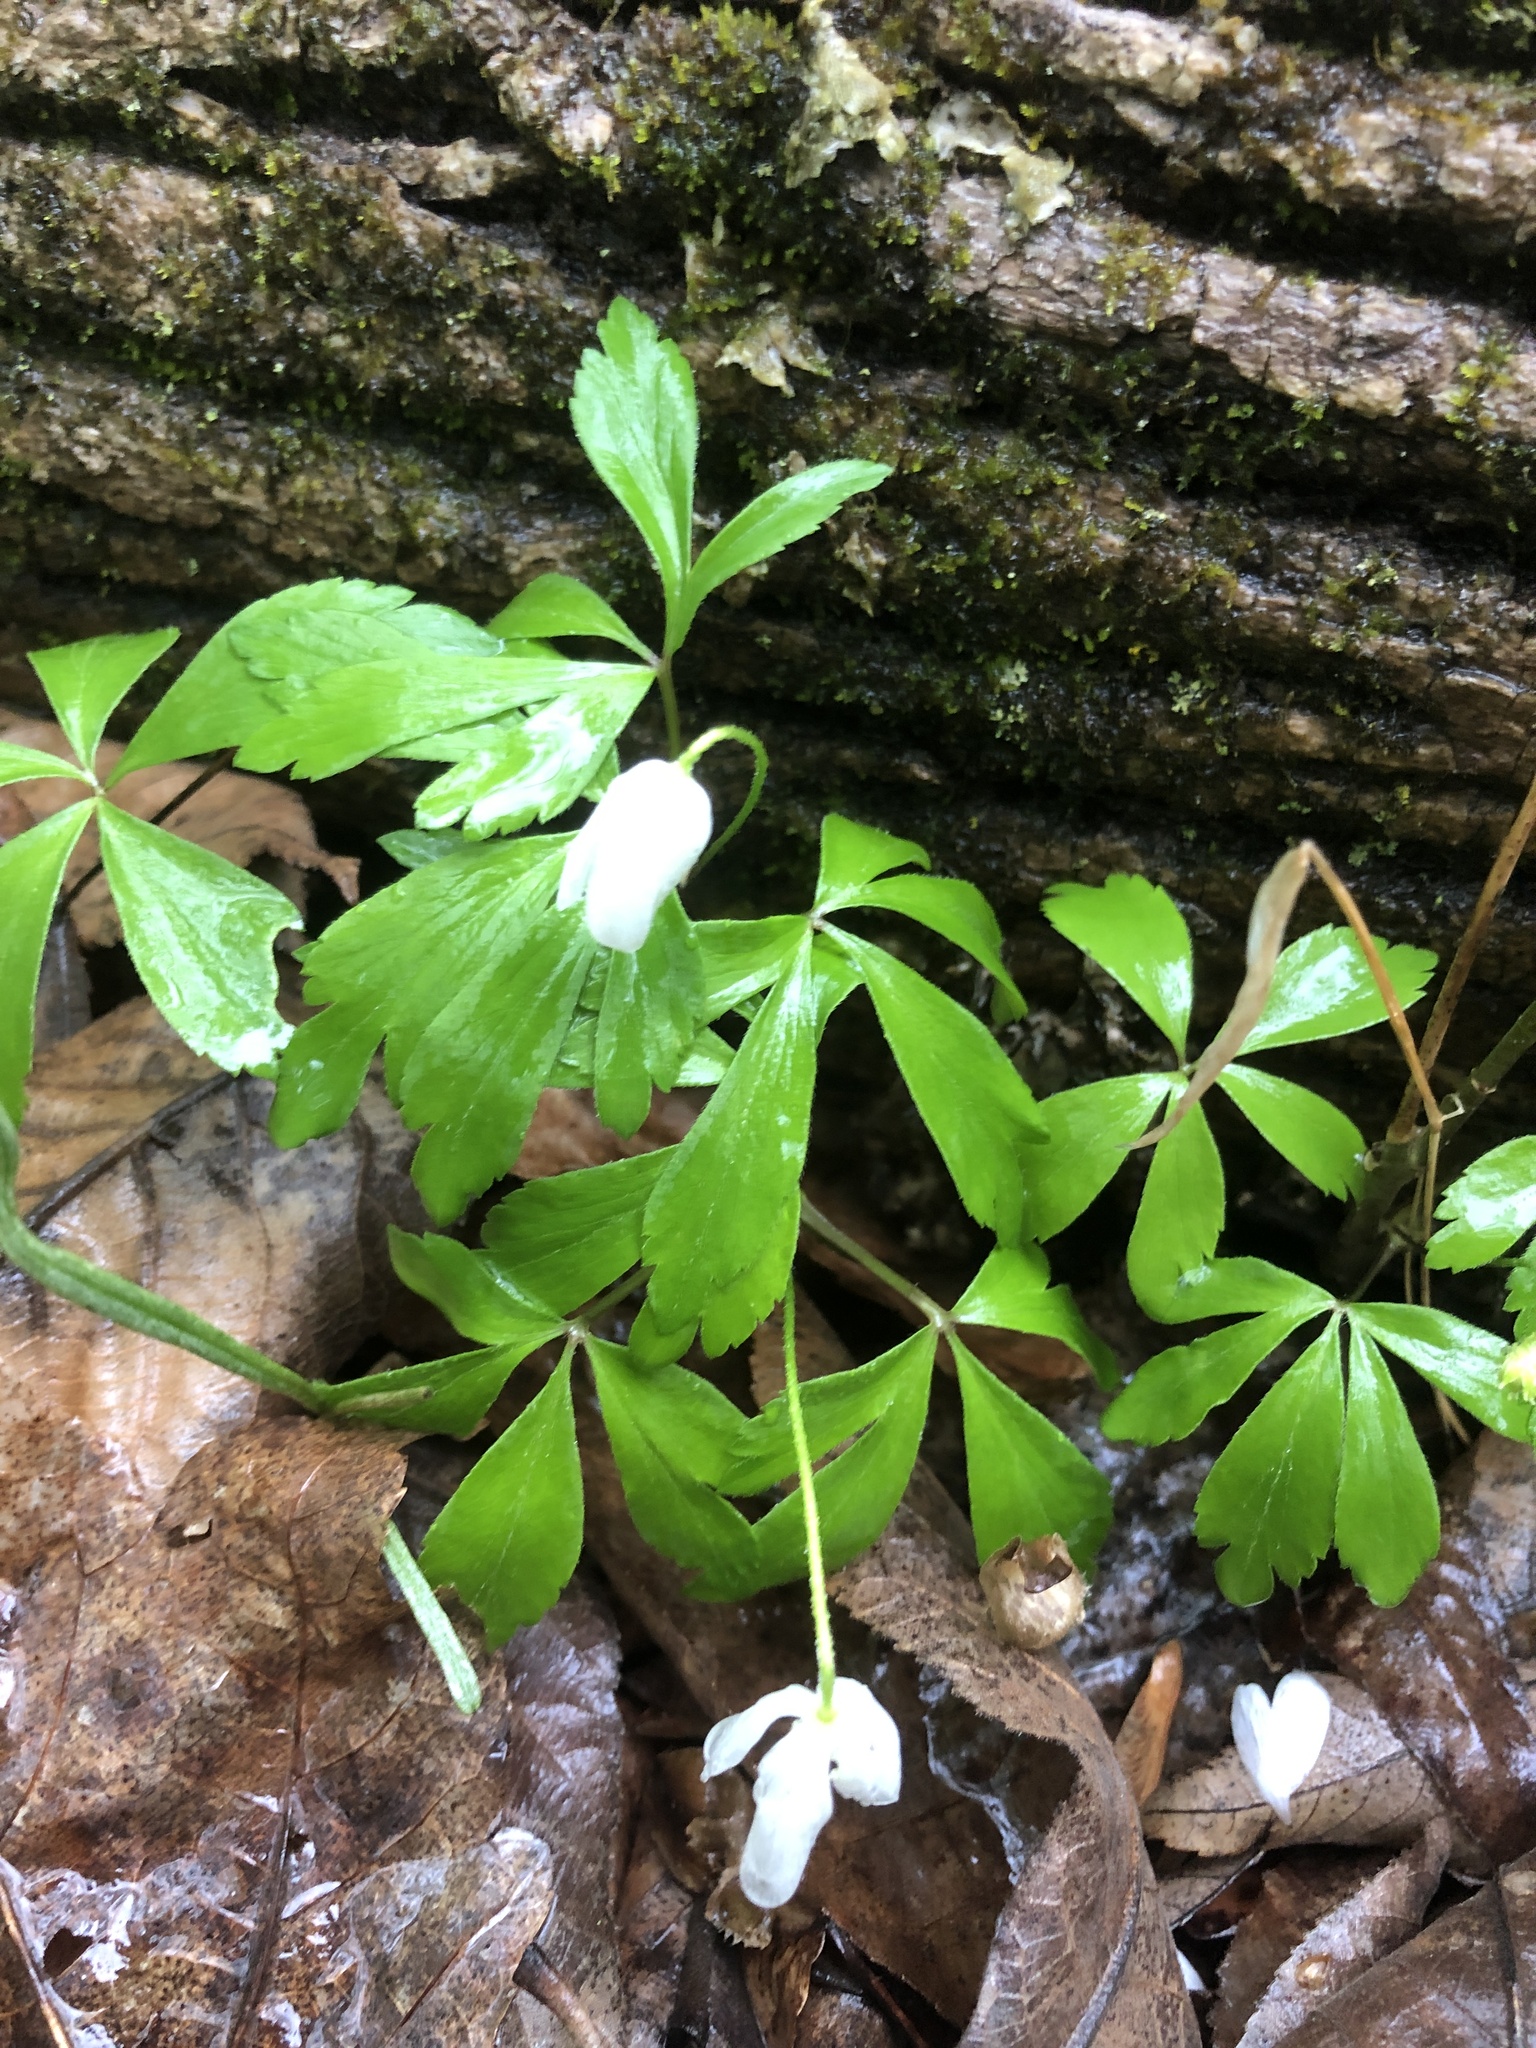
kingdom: Plantae
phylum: Tracheophyta
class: Magnoliopsida
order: Ranunculales
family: Ranunculaceae
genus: Anemone
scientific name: Anemone quinquefolia
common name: Wood anemone
